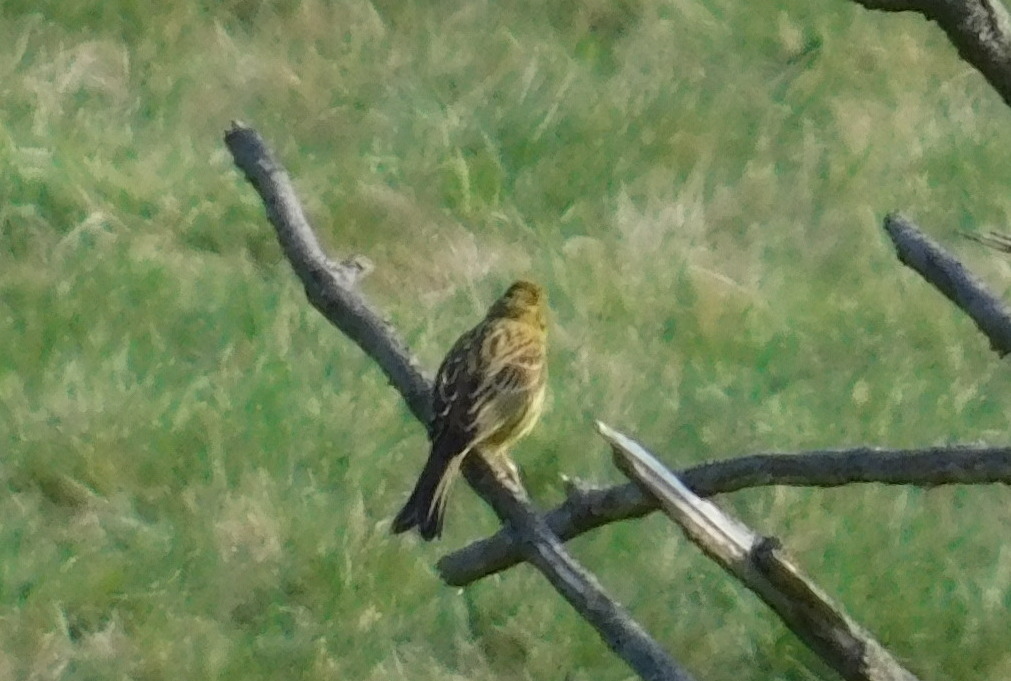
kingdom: Animalia
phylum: Chordata
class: Aves
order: Passeriformes
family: Emberizidae
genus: Emberiza
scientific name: Emberiza citrinella
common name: Yellowhammer
